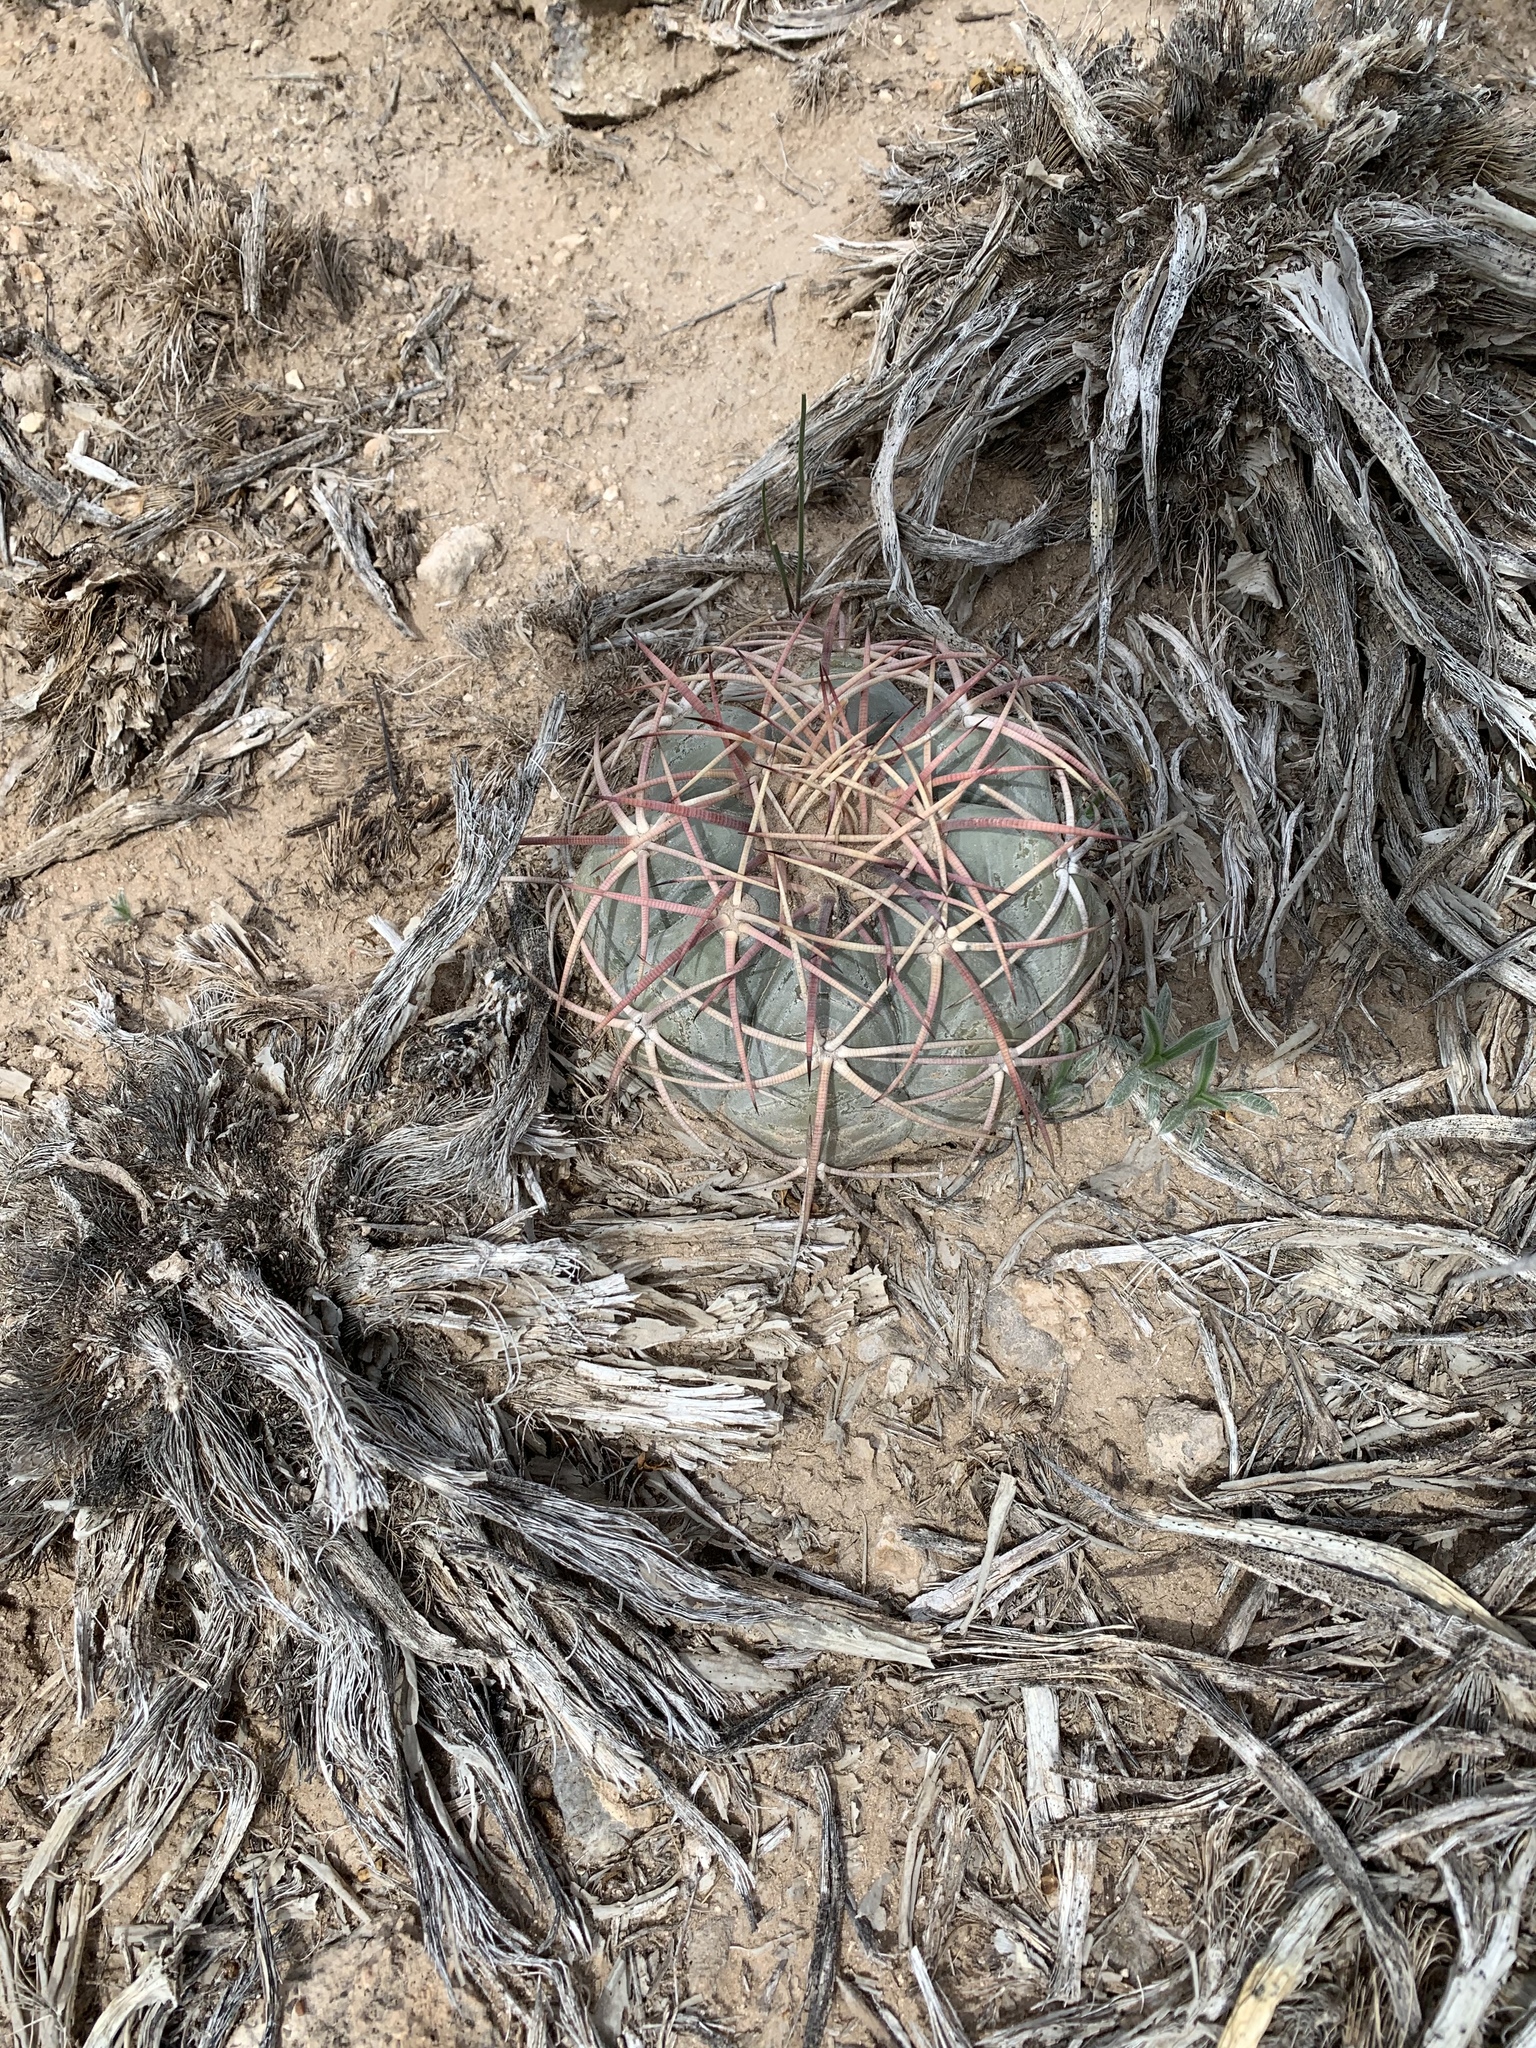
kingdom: Plantae
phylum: Tracheophyta
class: Magnoliopsida
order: Caryophyllales
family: Cactaceae
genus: Echinocactus
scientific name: Echinocactus horizonthalonius
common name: Devilshead
